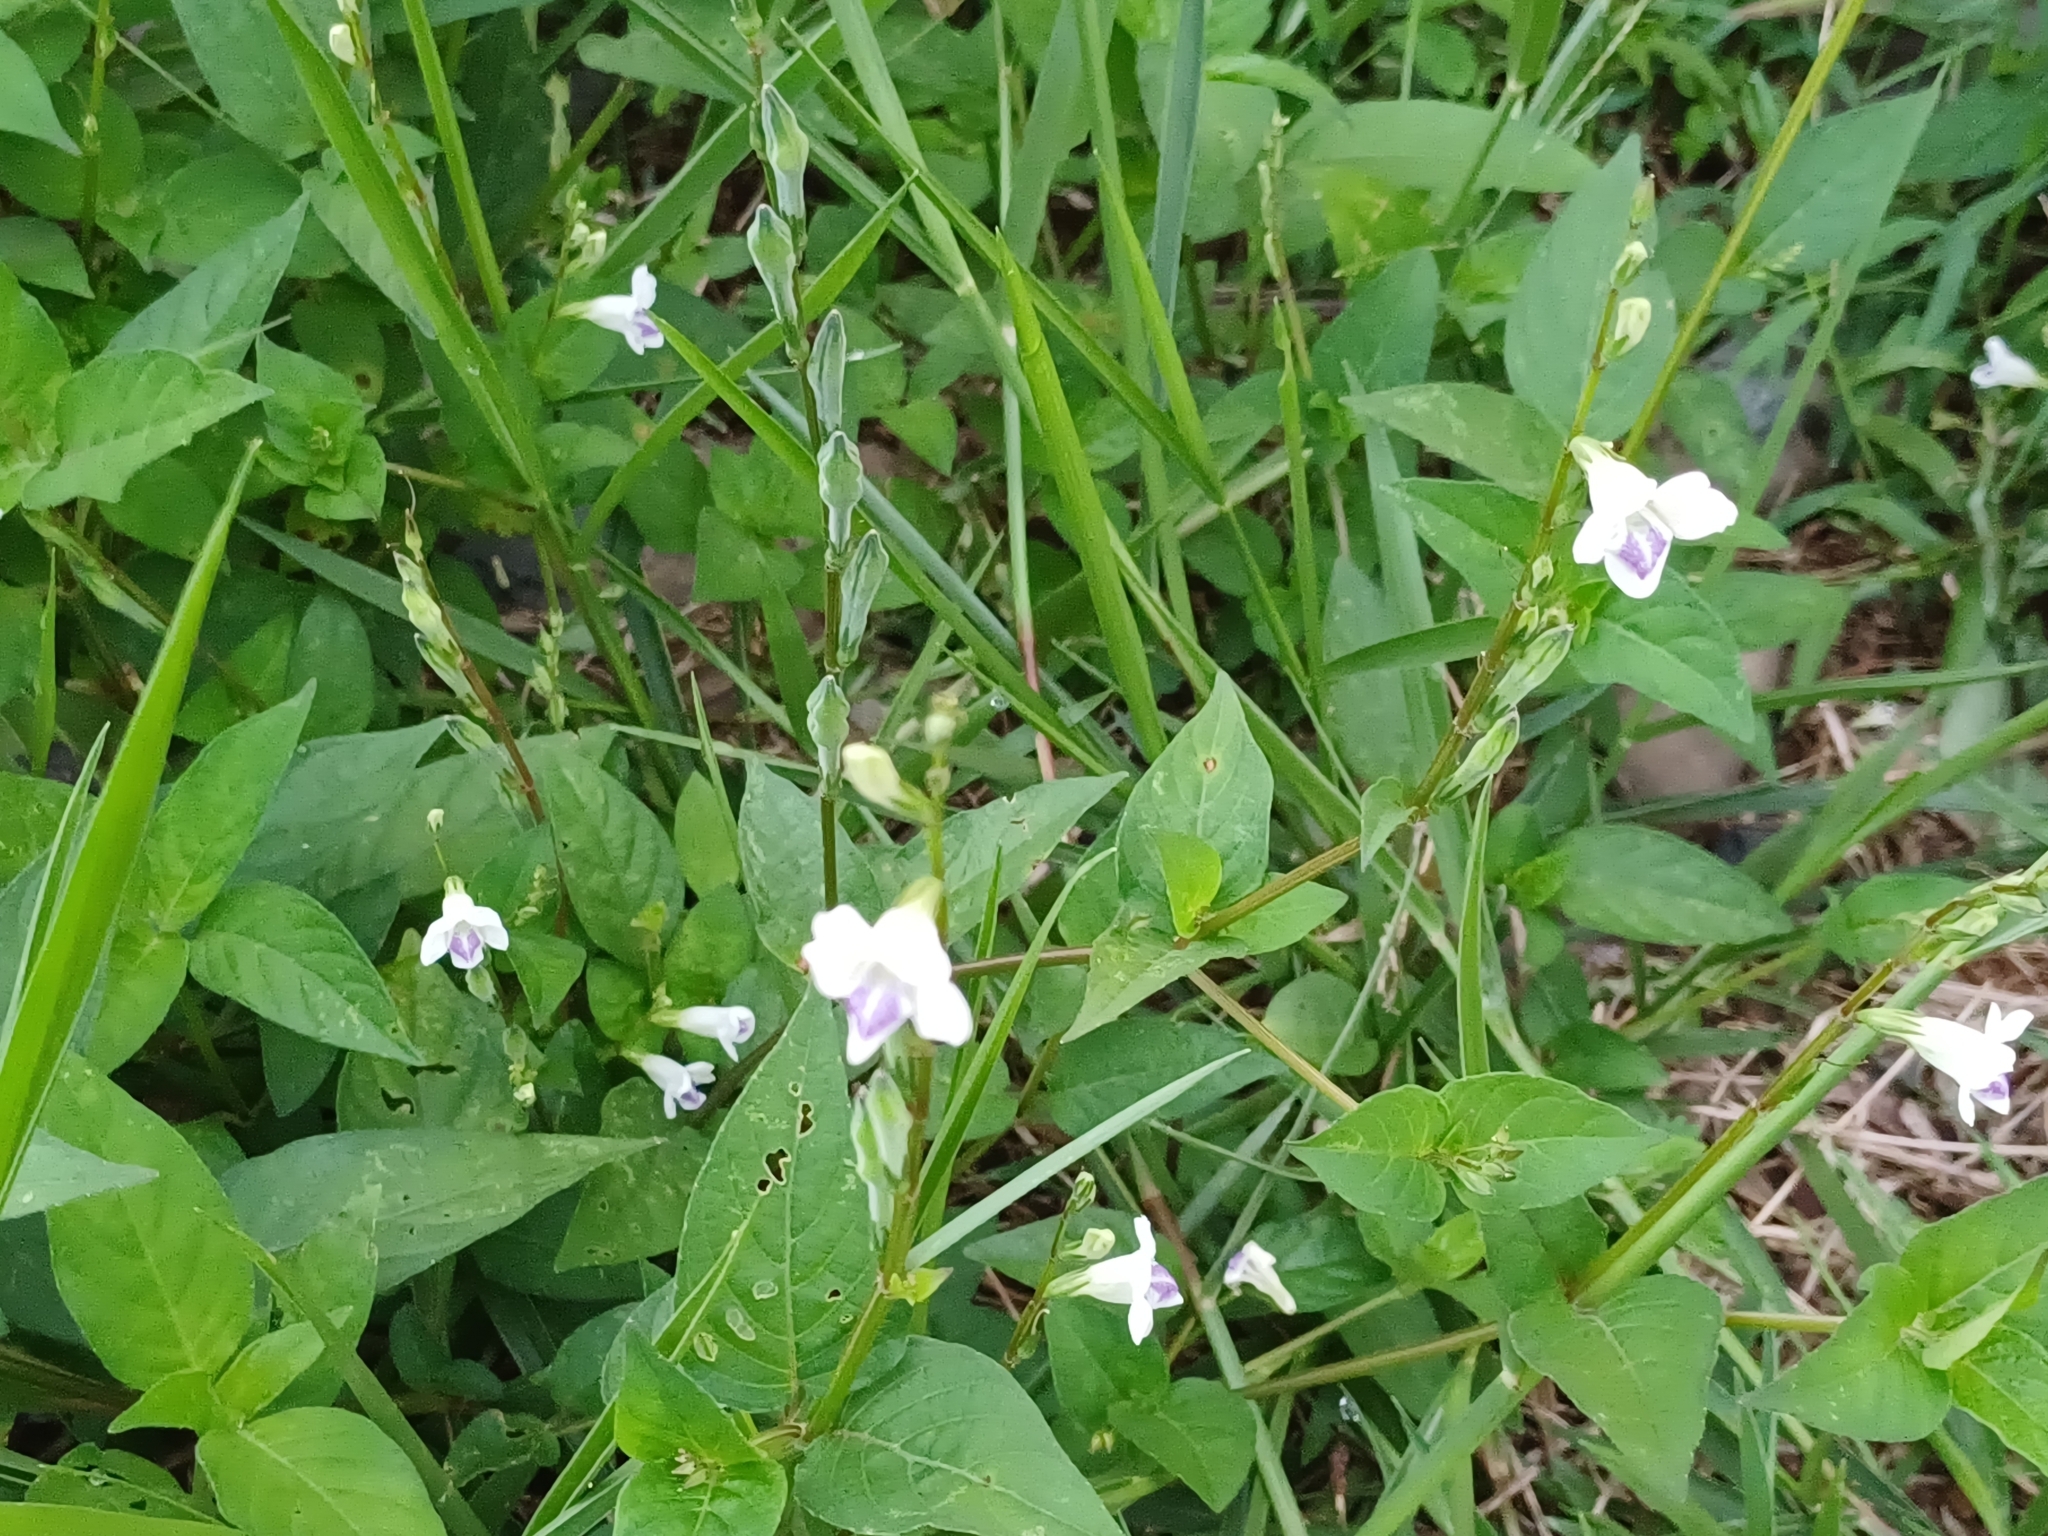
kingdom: Plantae
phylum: Tracheophyta
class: Magnoliopsida
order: Lamiales
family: Acanthaceae
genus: Asystasia
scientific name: Asystasia intrusa
